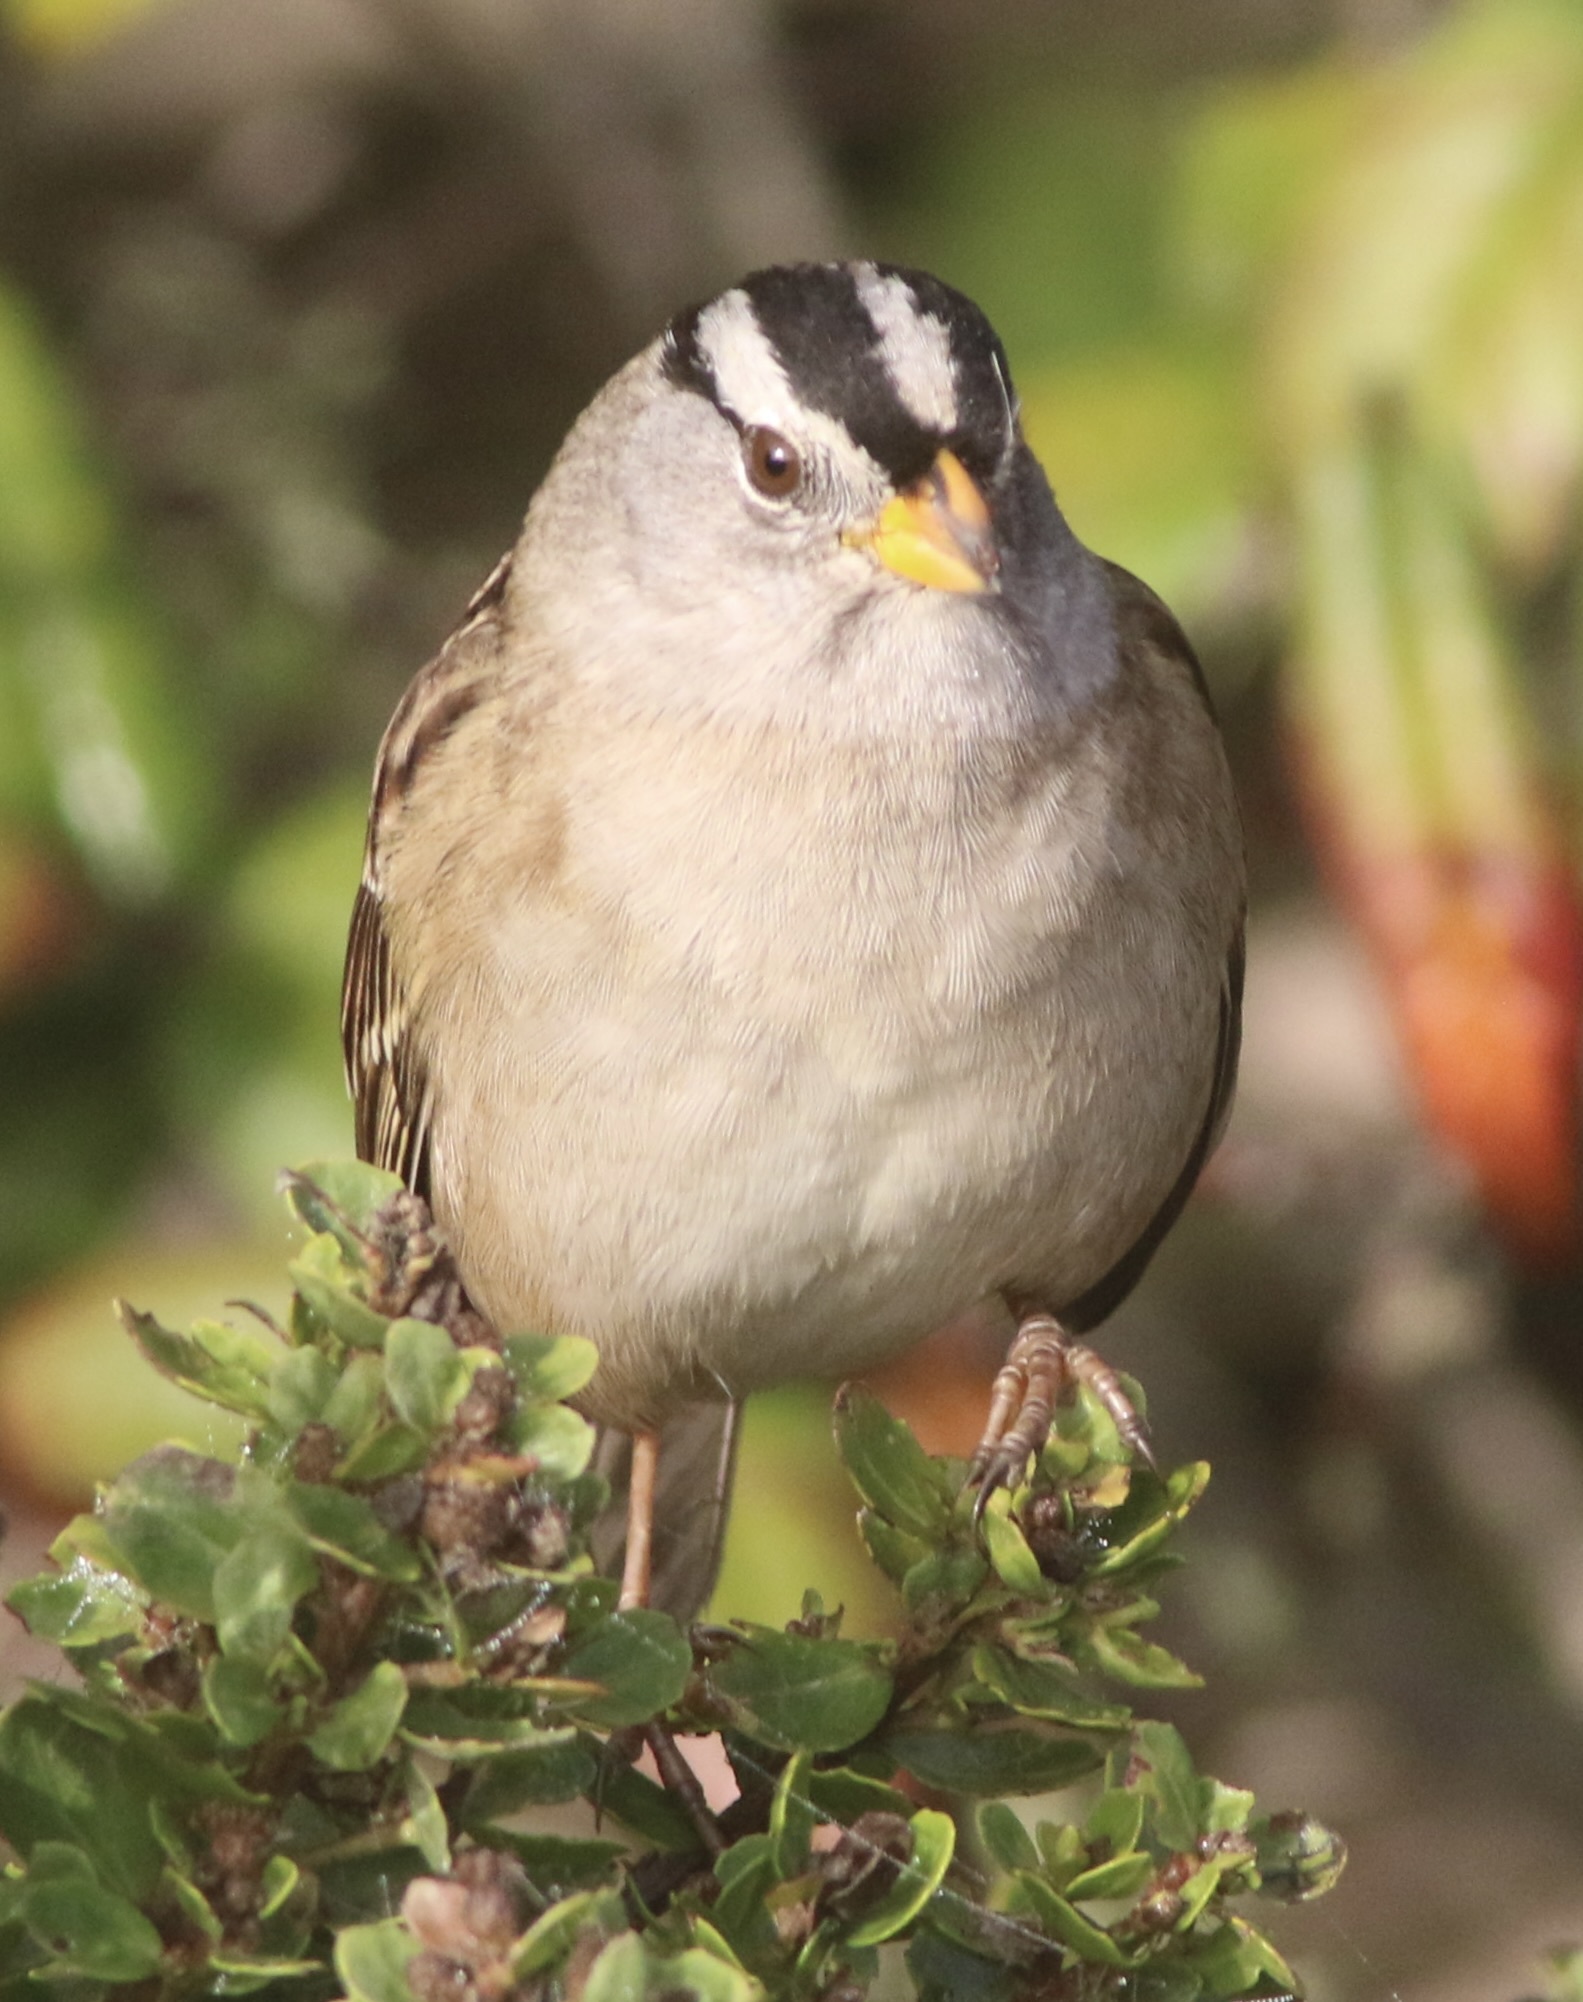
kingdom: Animalia
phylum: Chordata
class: Aves
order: Passeriformes
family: Passerellidae
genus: Zonotrichia
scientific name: Zonotrichia leucophrys
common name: White-crowned sparrow
